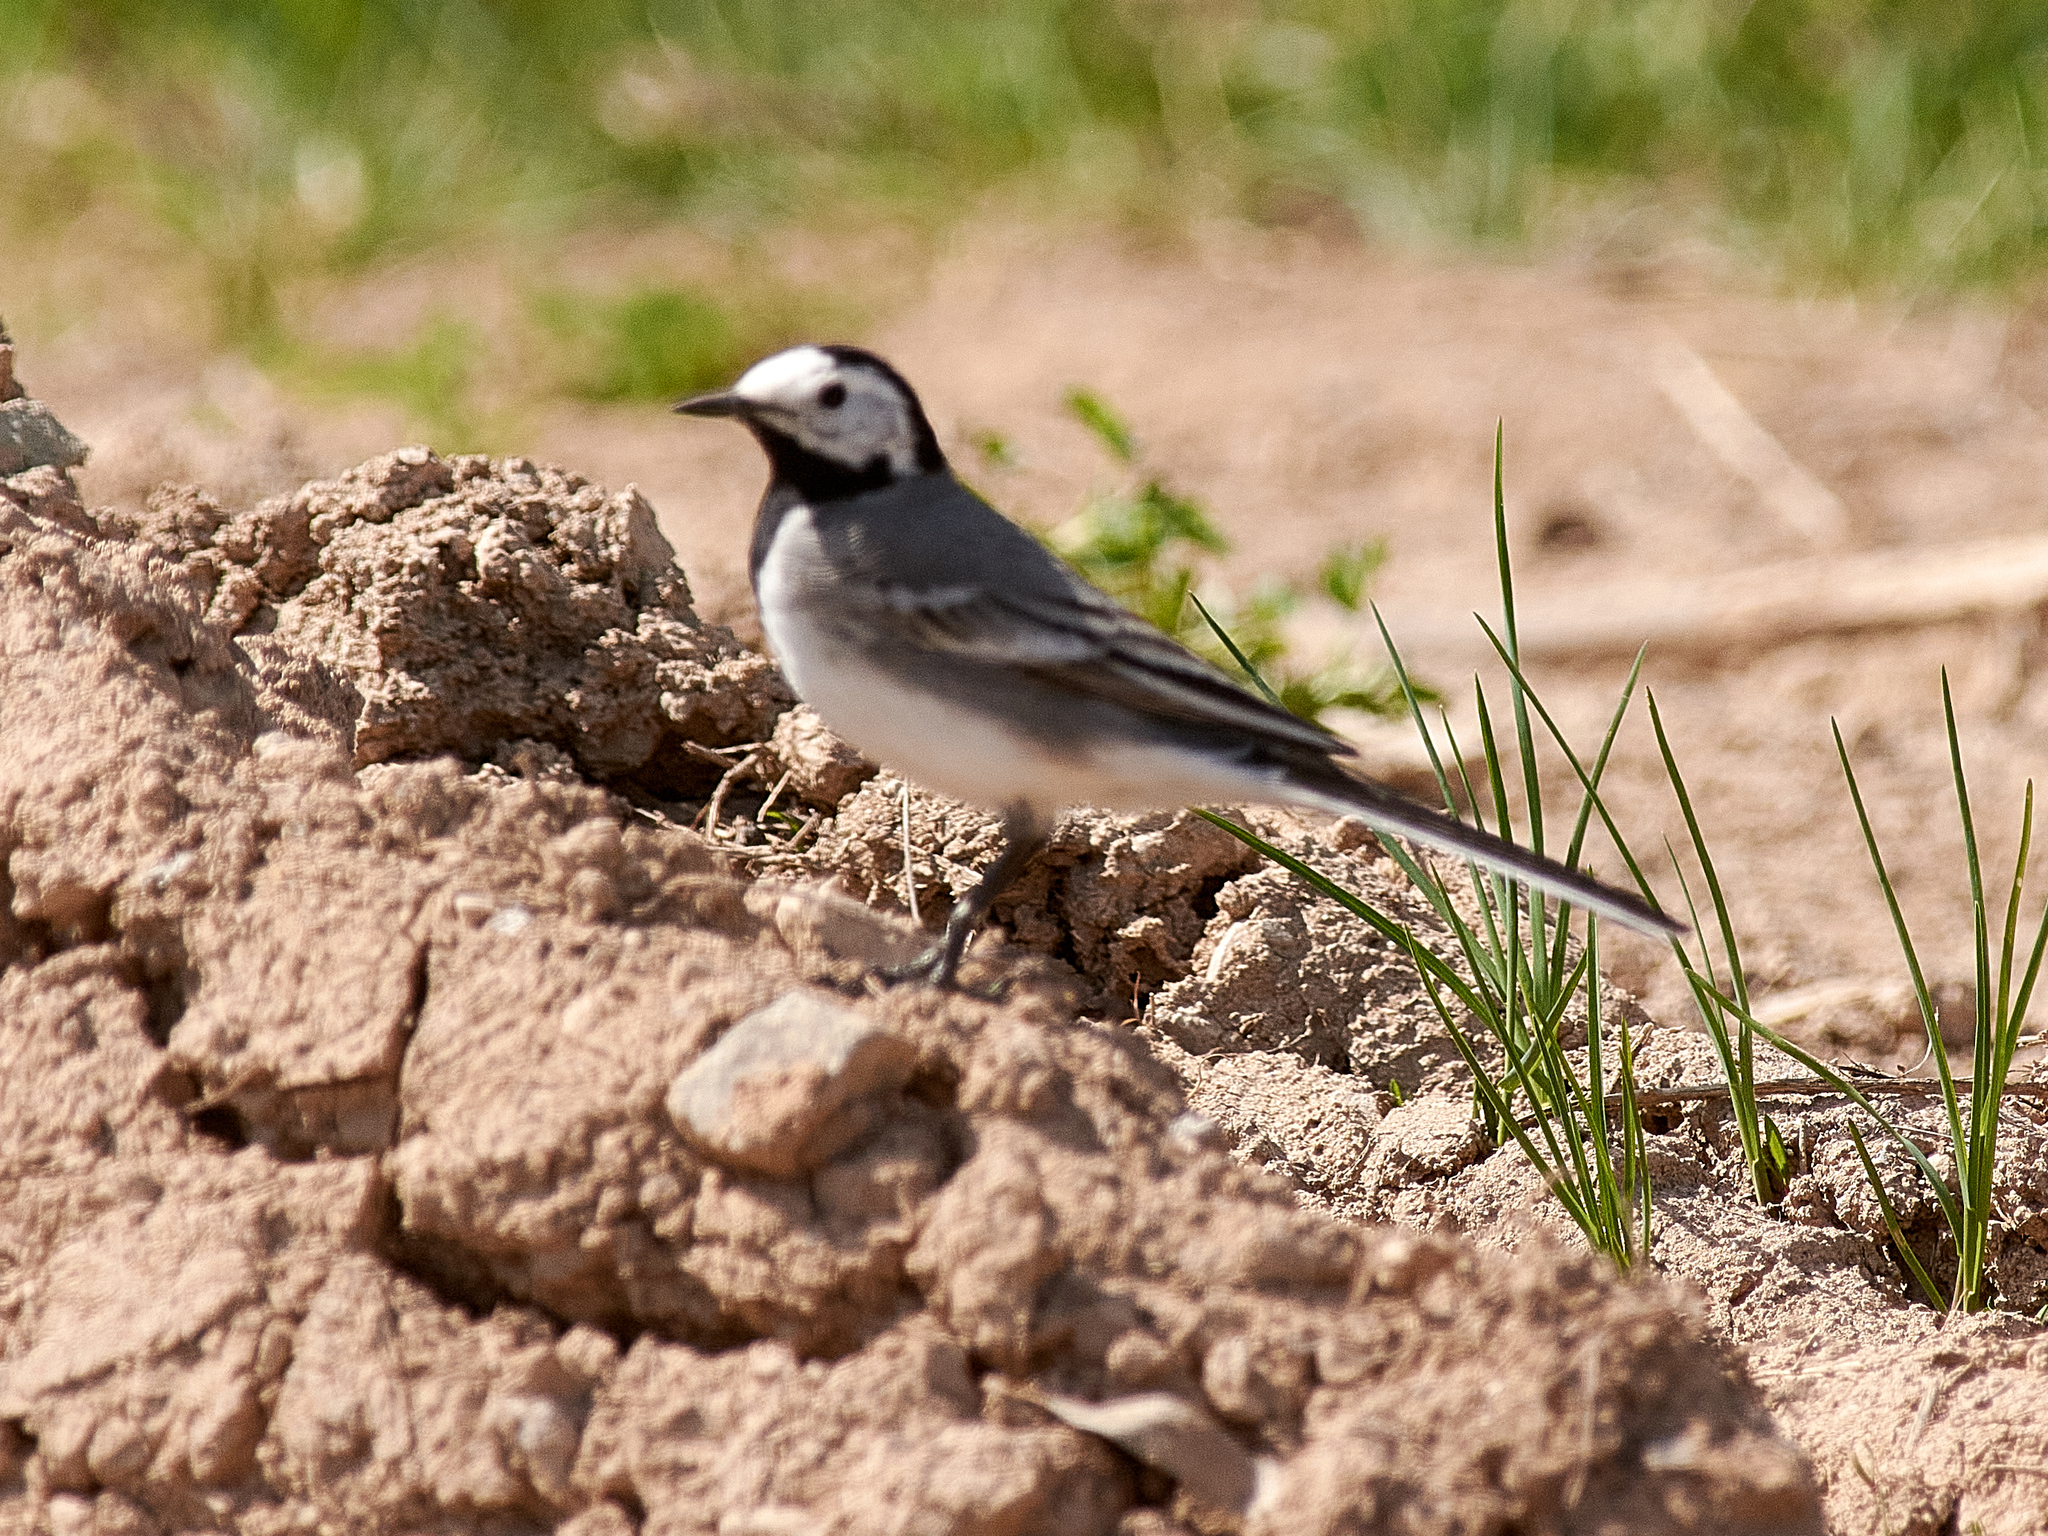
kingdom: Animalia
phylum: Chordata
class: Aves
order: Passeriformes
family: Motacillidae
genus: Motacilla
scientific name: Motacilla alba
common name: White wagtail
